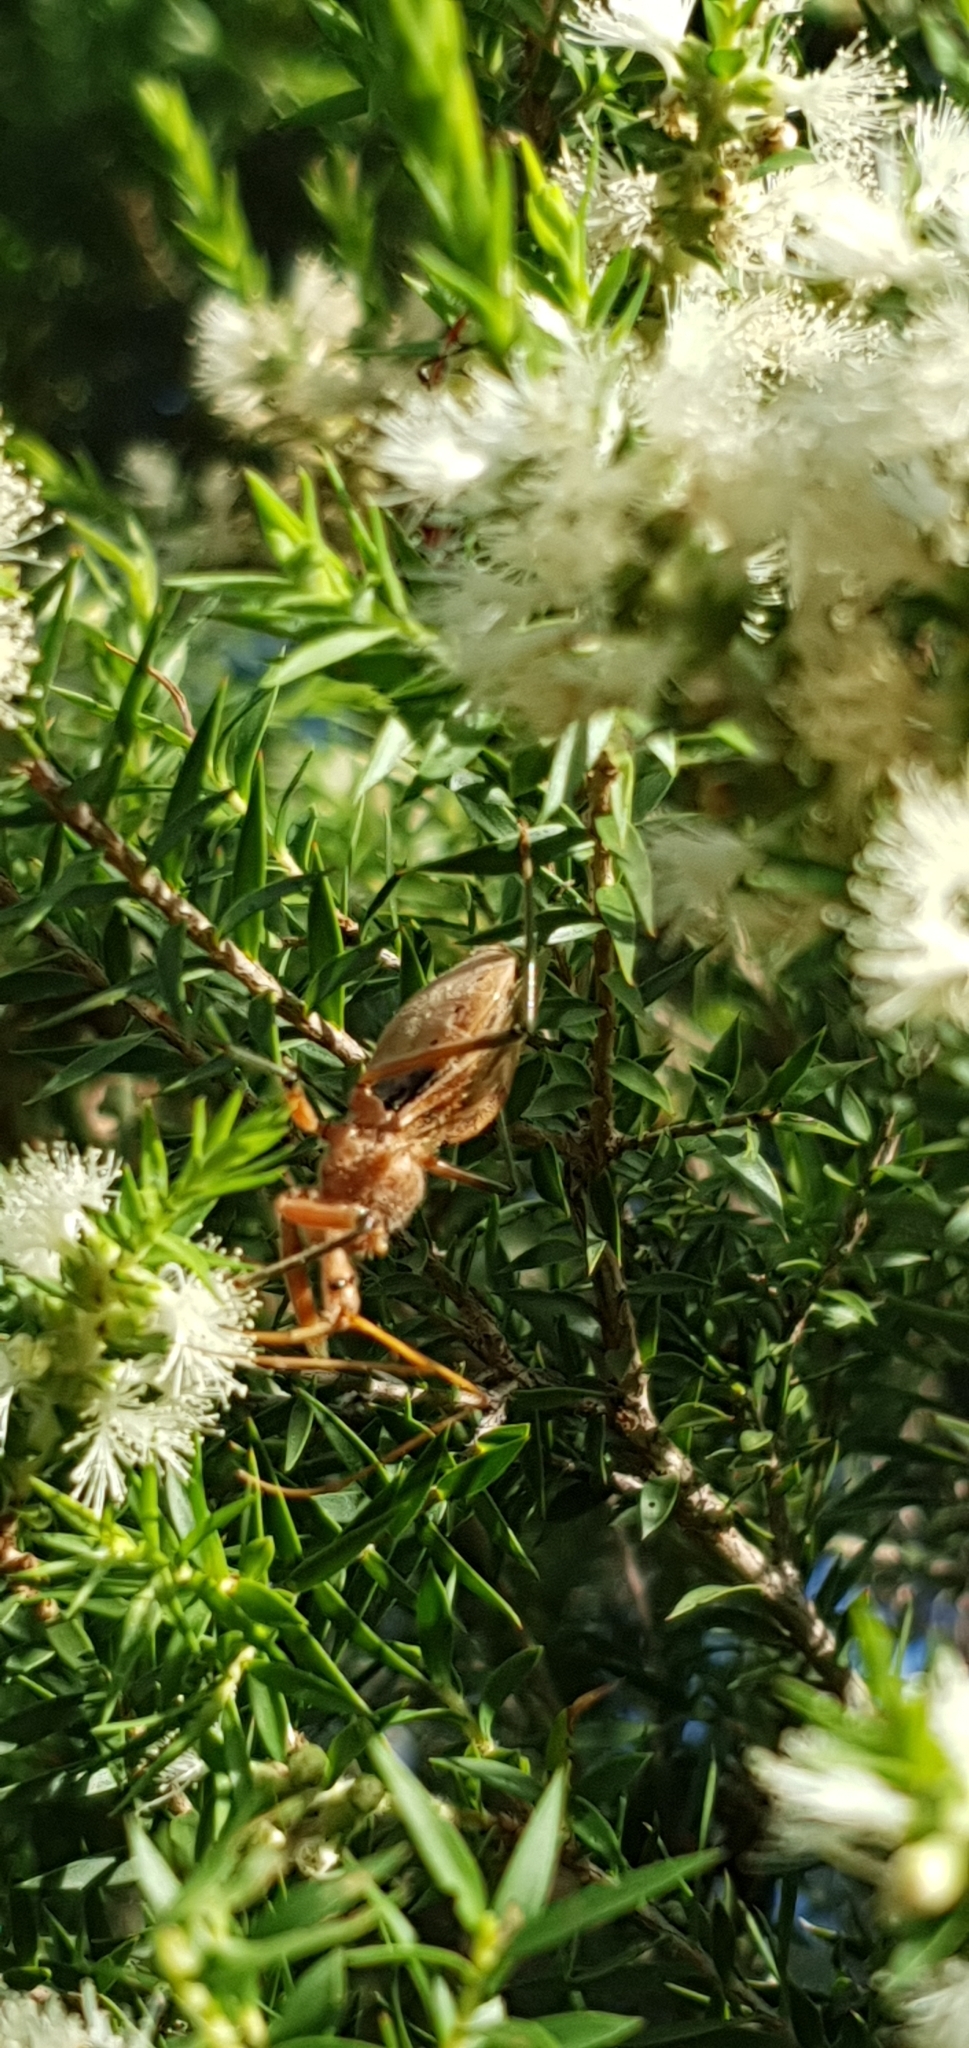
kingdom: Animalia
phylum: Arthropoda
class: Insecta
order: Hemiptera
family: Reduviidae
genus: Pristhesancus
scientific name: Pristhesancus plagipennis
